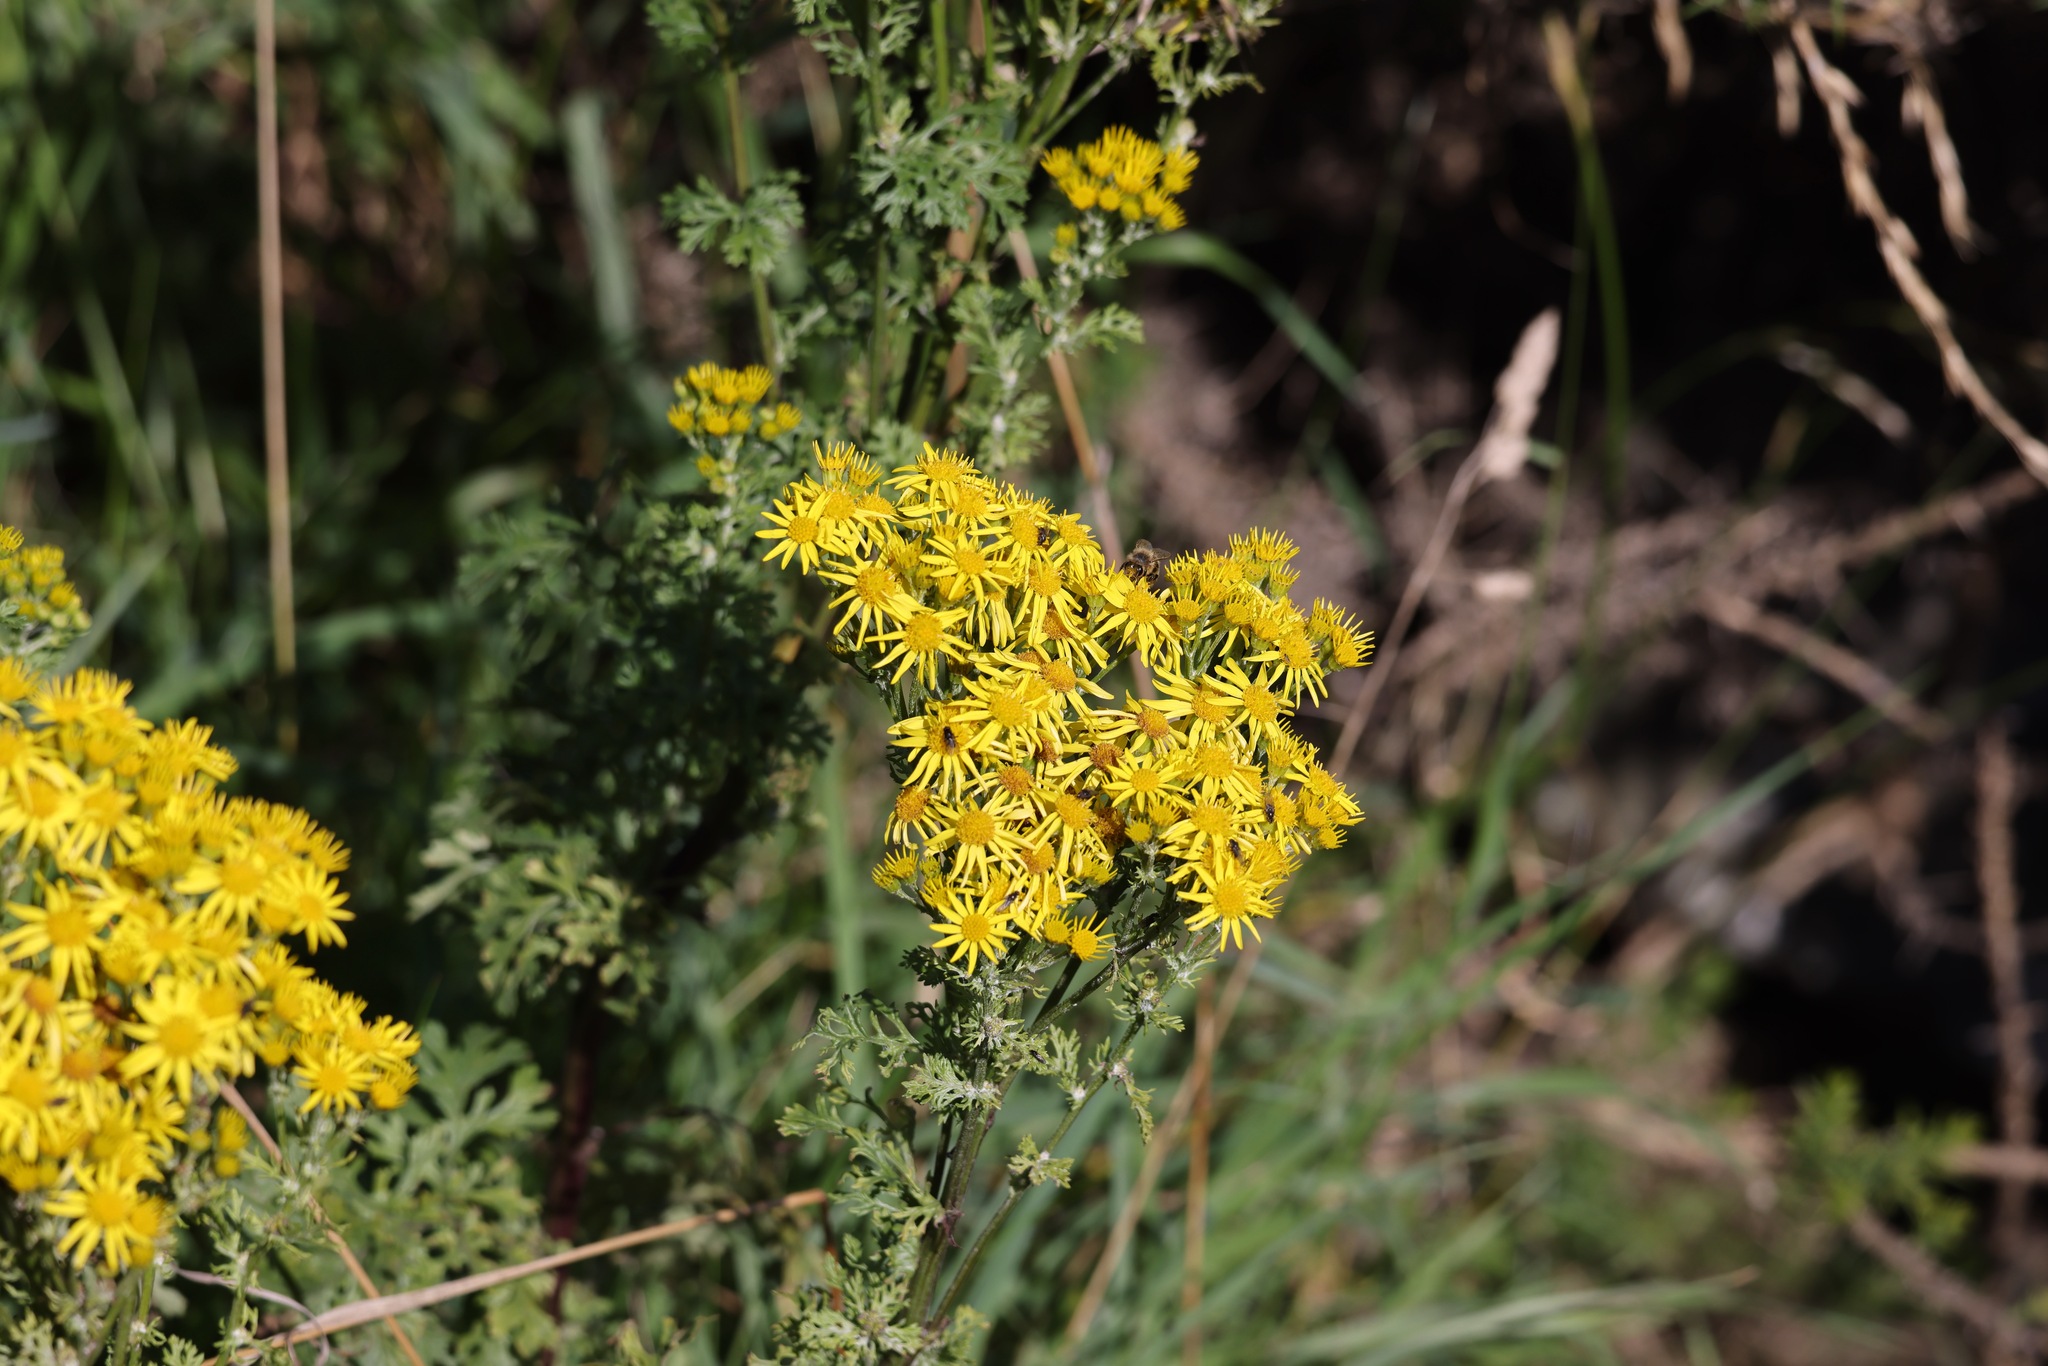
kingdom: Plantae
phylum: Tracheophyta
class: Magnoliopsida
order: Asterales
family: Asteraceae
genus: Jacobaea
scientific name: Jacobaea vulgaris
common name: Stinking willie
